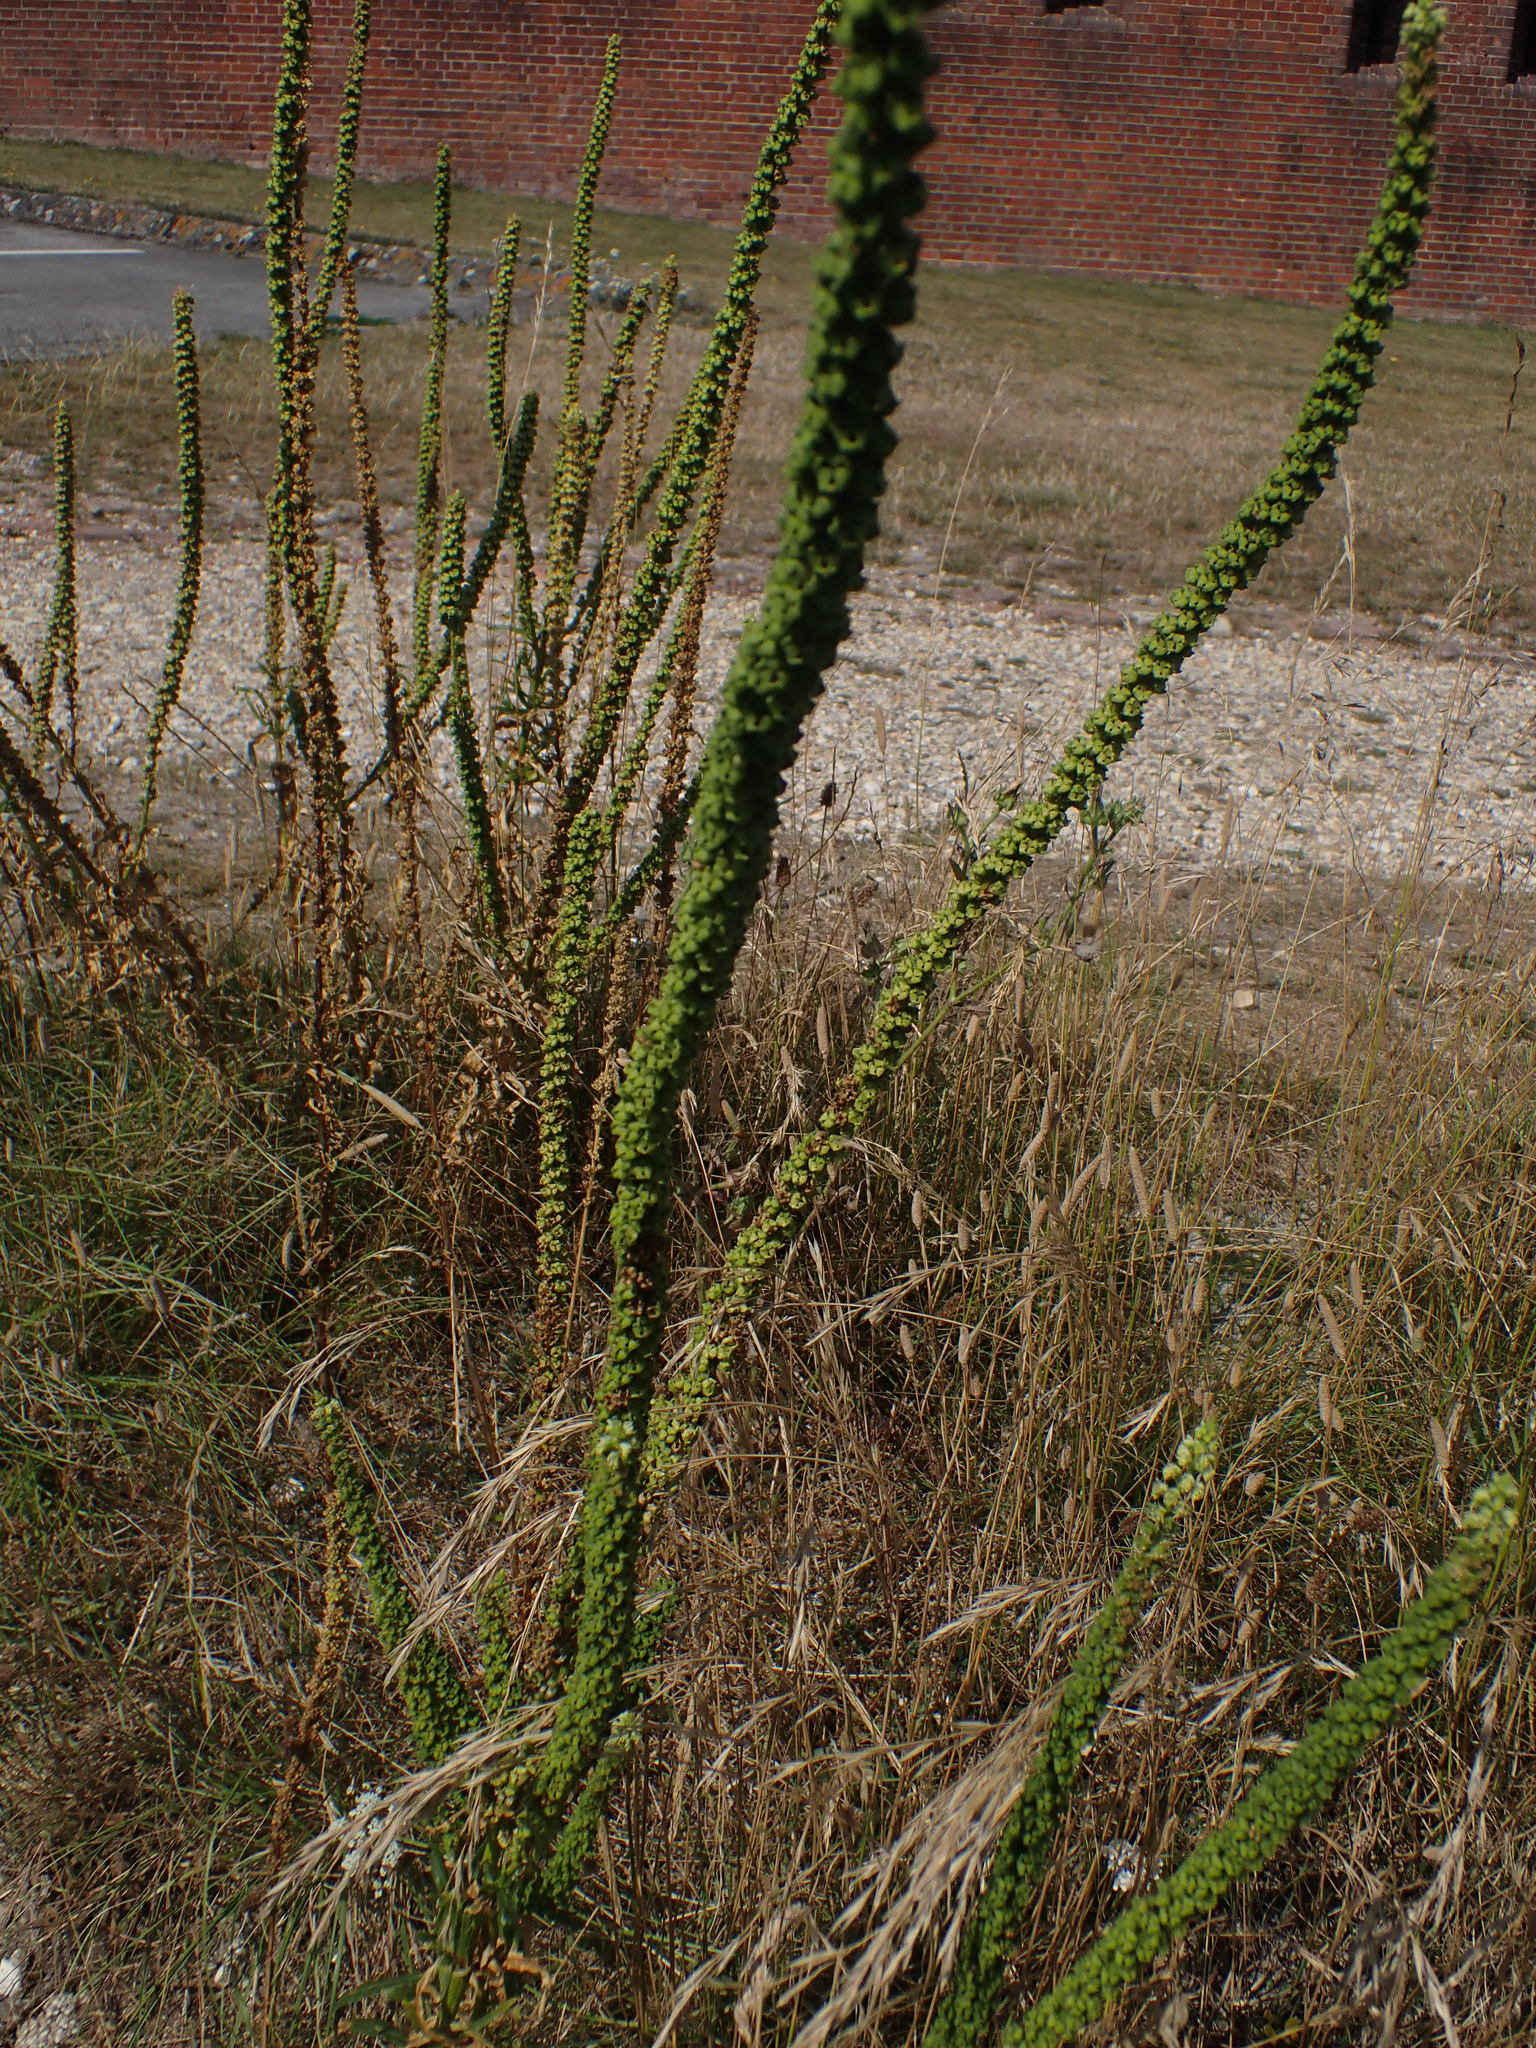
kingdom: Plantae
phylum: Tracheophyta
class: Magnoliopsida
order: Brassicales
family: Resedaceae
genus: Reseda
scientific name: Reseda luteola
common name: Weld
